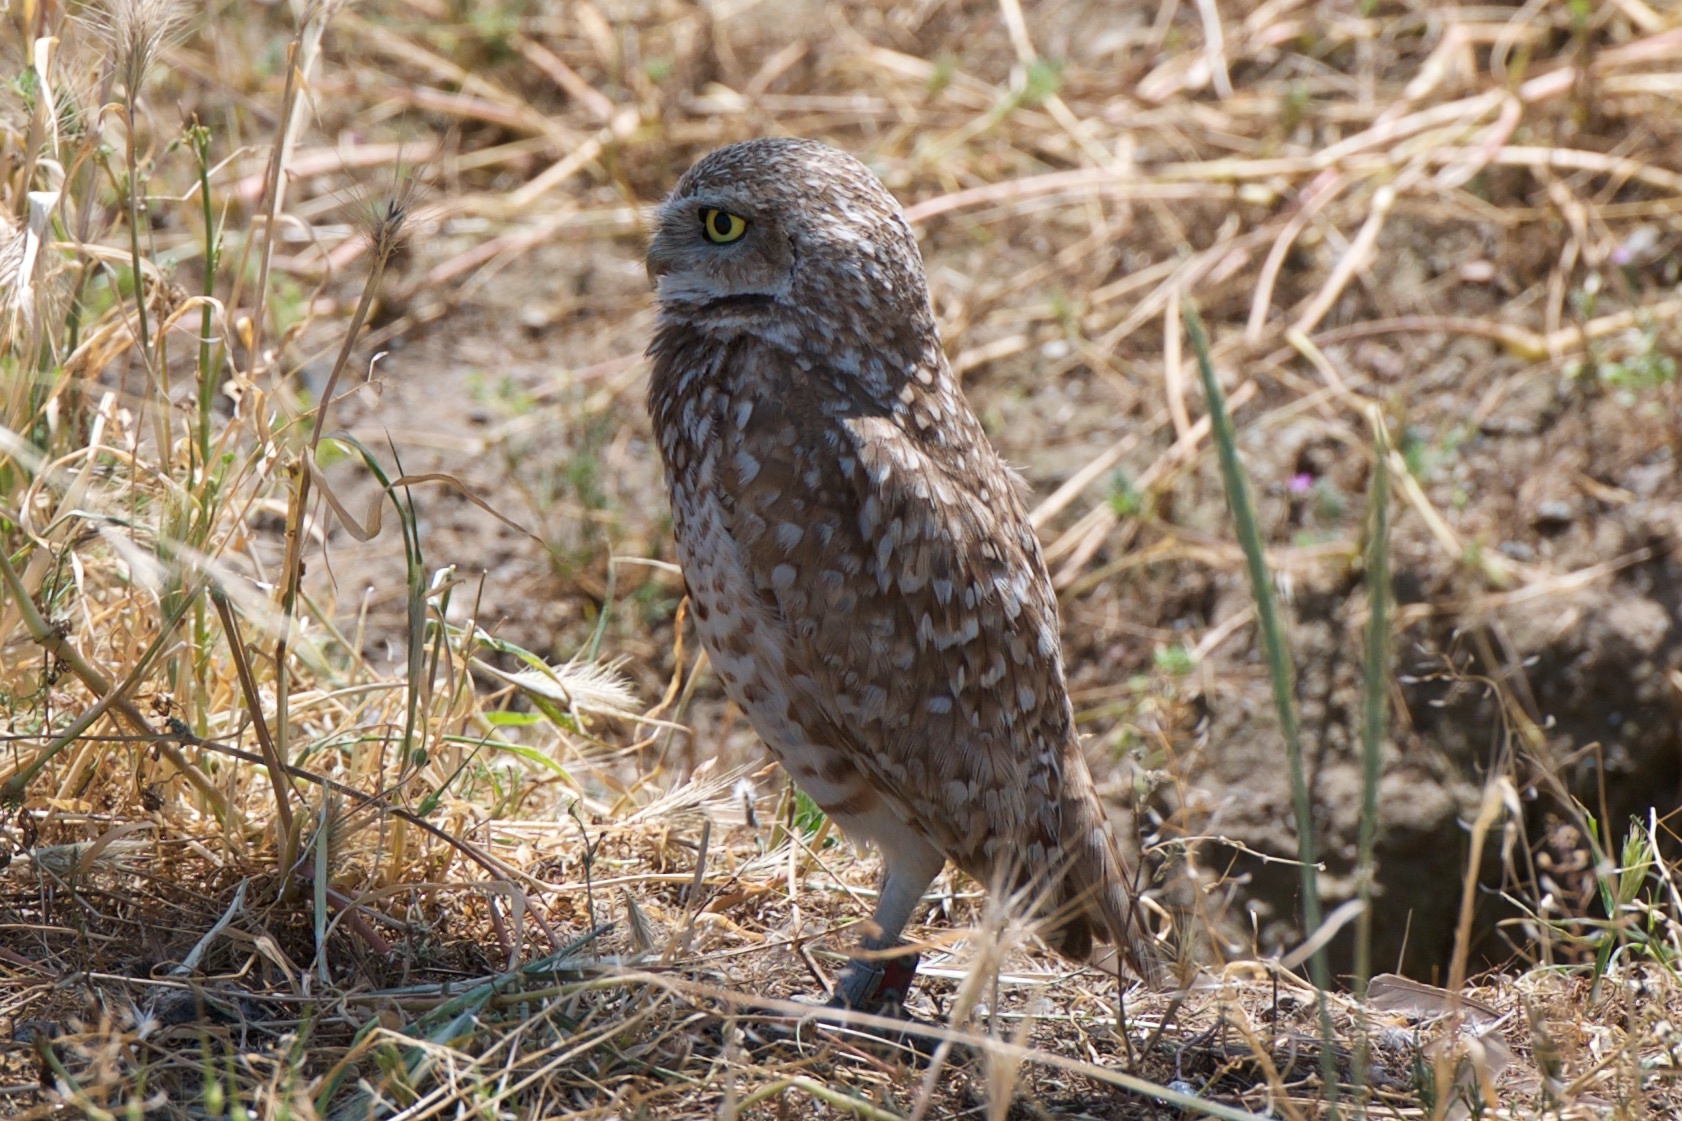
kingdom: Animalia
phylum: Chordata
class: Aves
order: Strigiformes
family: Strigidae
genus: Athene
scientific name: Athene cunicularia
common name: Burrowing owl
